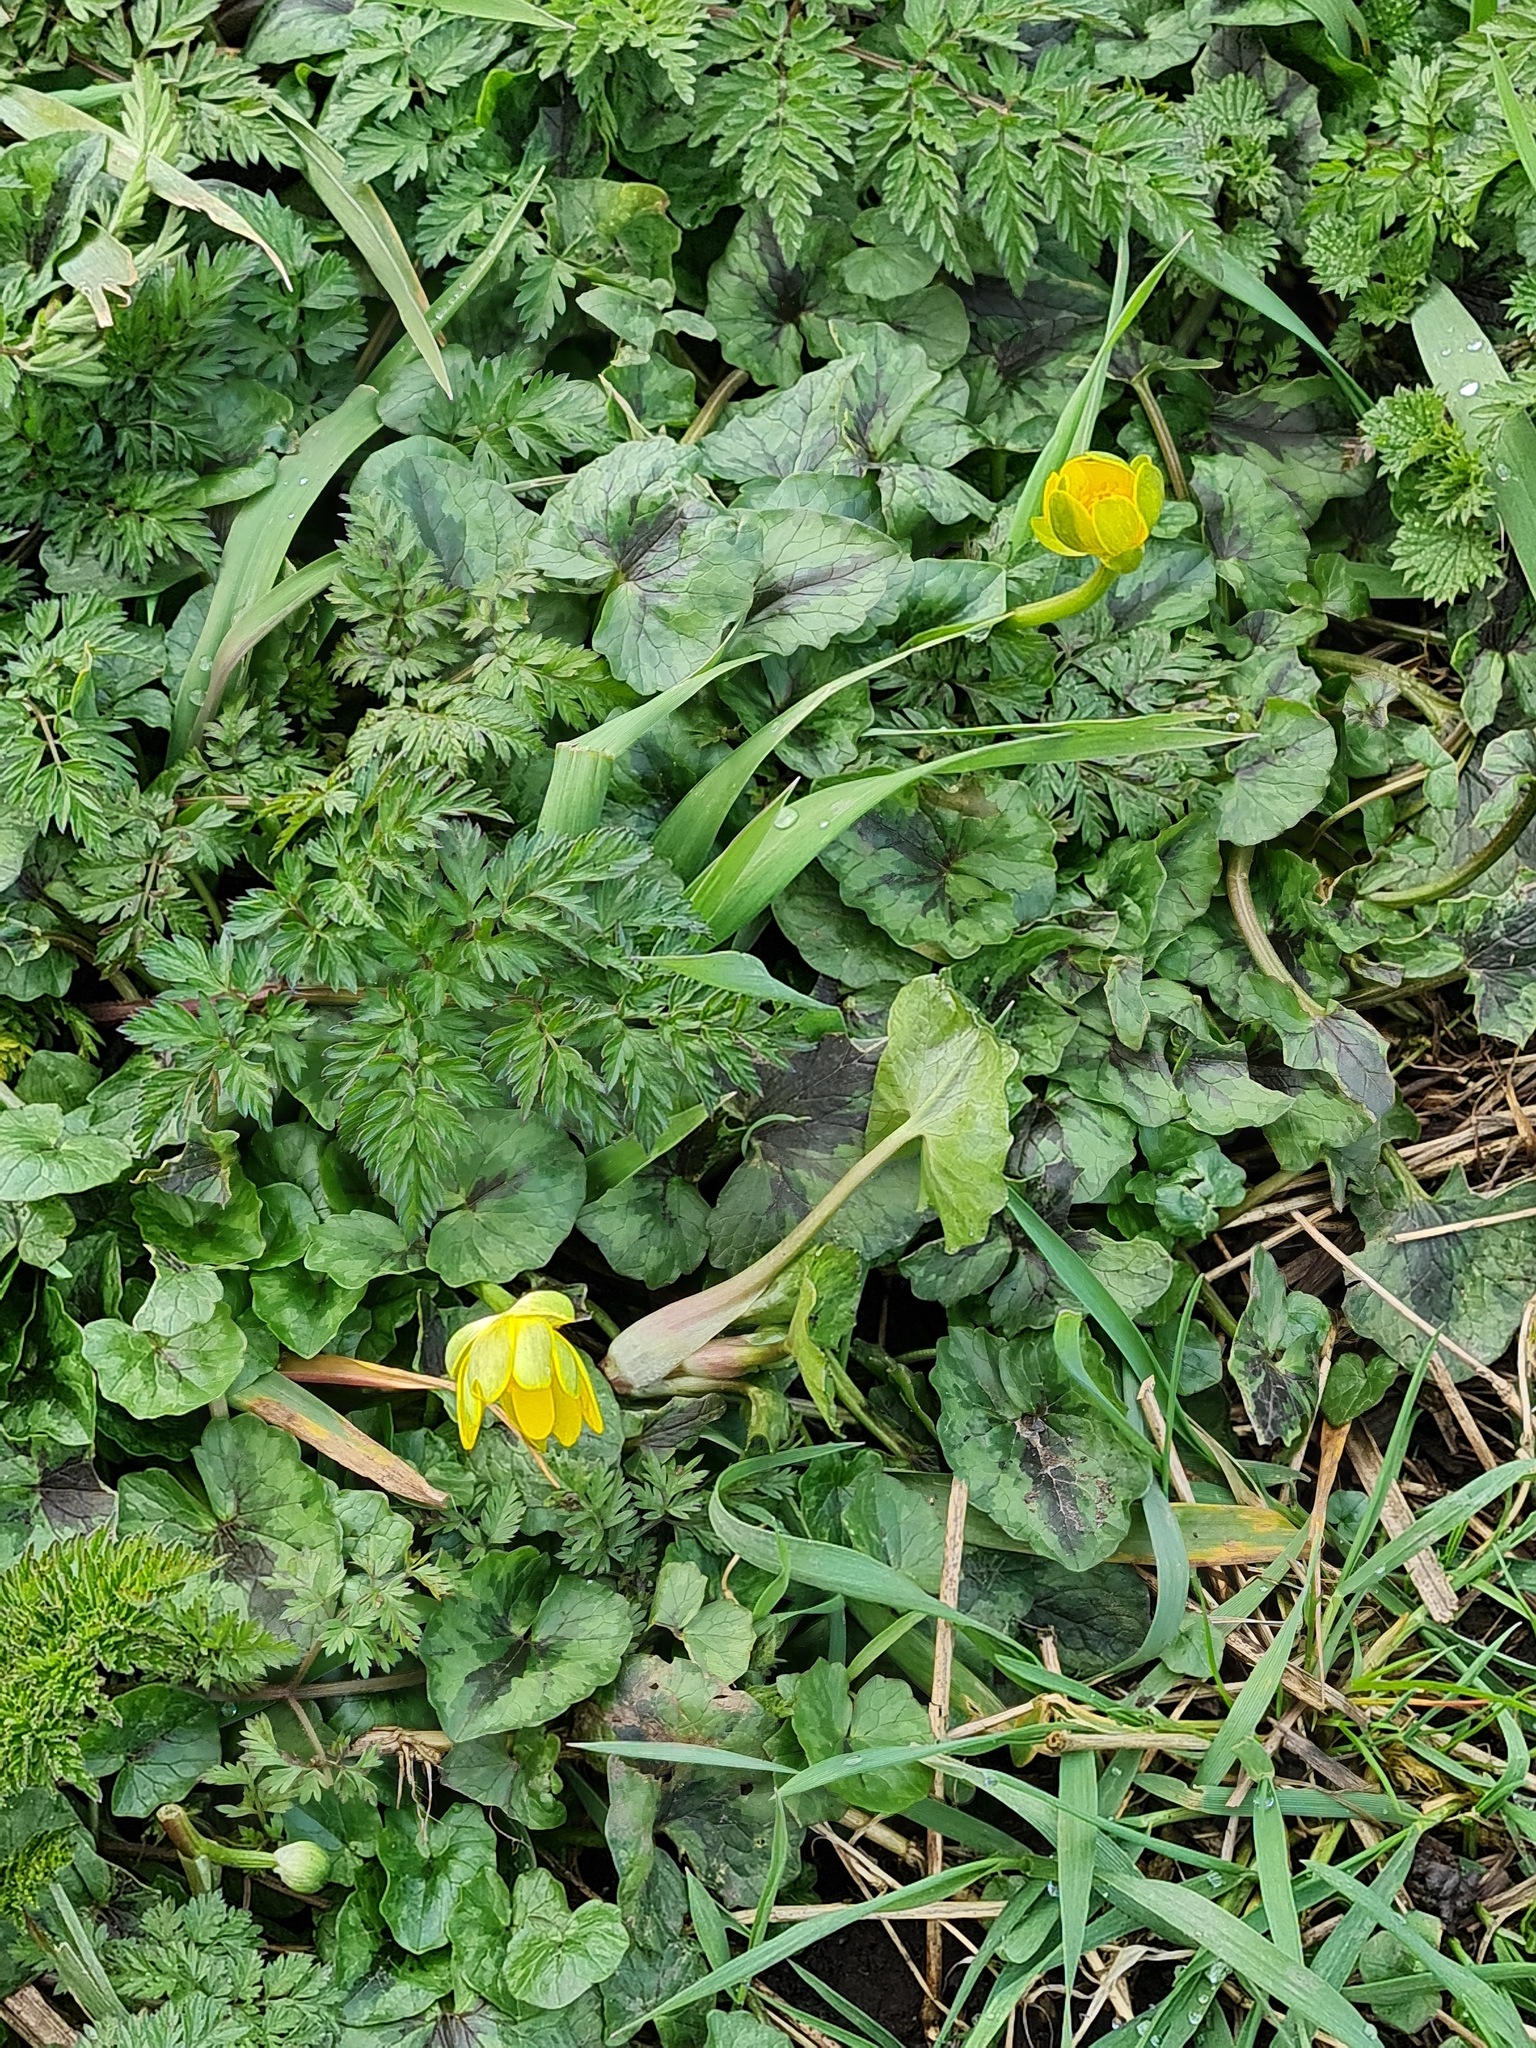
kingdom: Plantae
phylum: Tracheophyta
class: Magnoliopsida
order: Ranunculales
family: Ranunculaceae
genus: Ficaria
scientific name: Ficaria verna
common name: Lesser celandine
